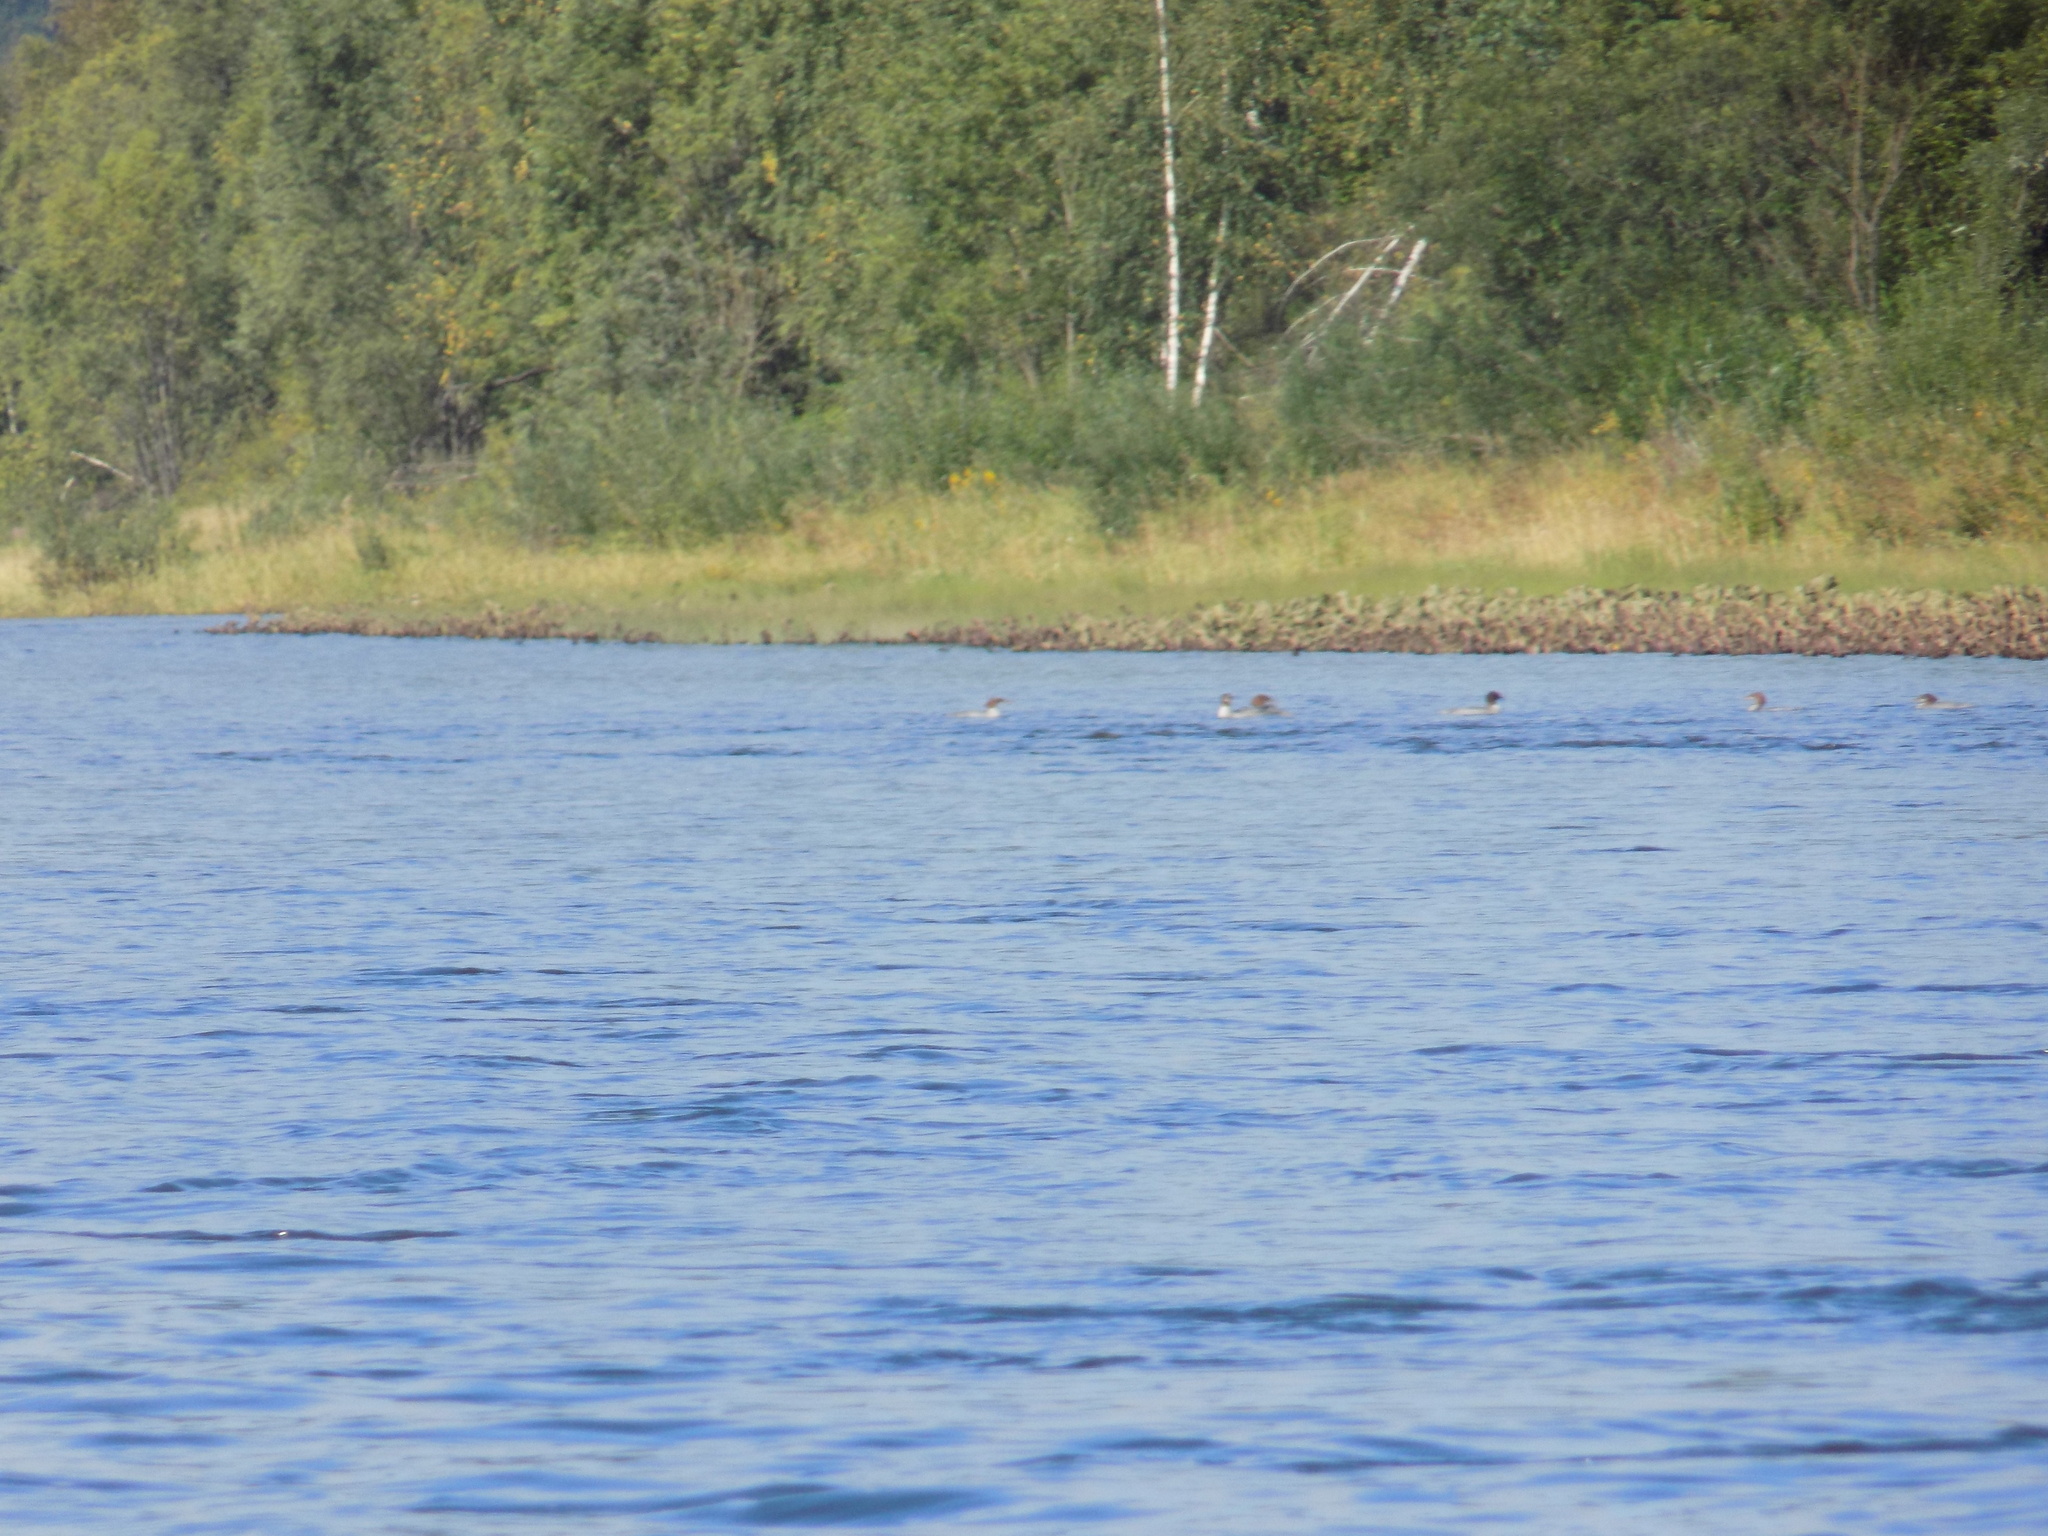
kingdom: Animalia
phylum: Chordata
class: Aves
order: Anseriformes
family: Anatidae
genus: Mergus
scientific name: Mergus merganser
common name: Common merganser
